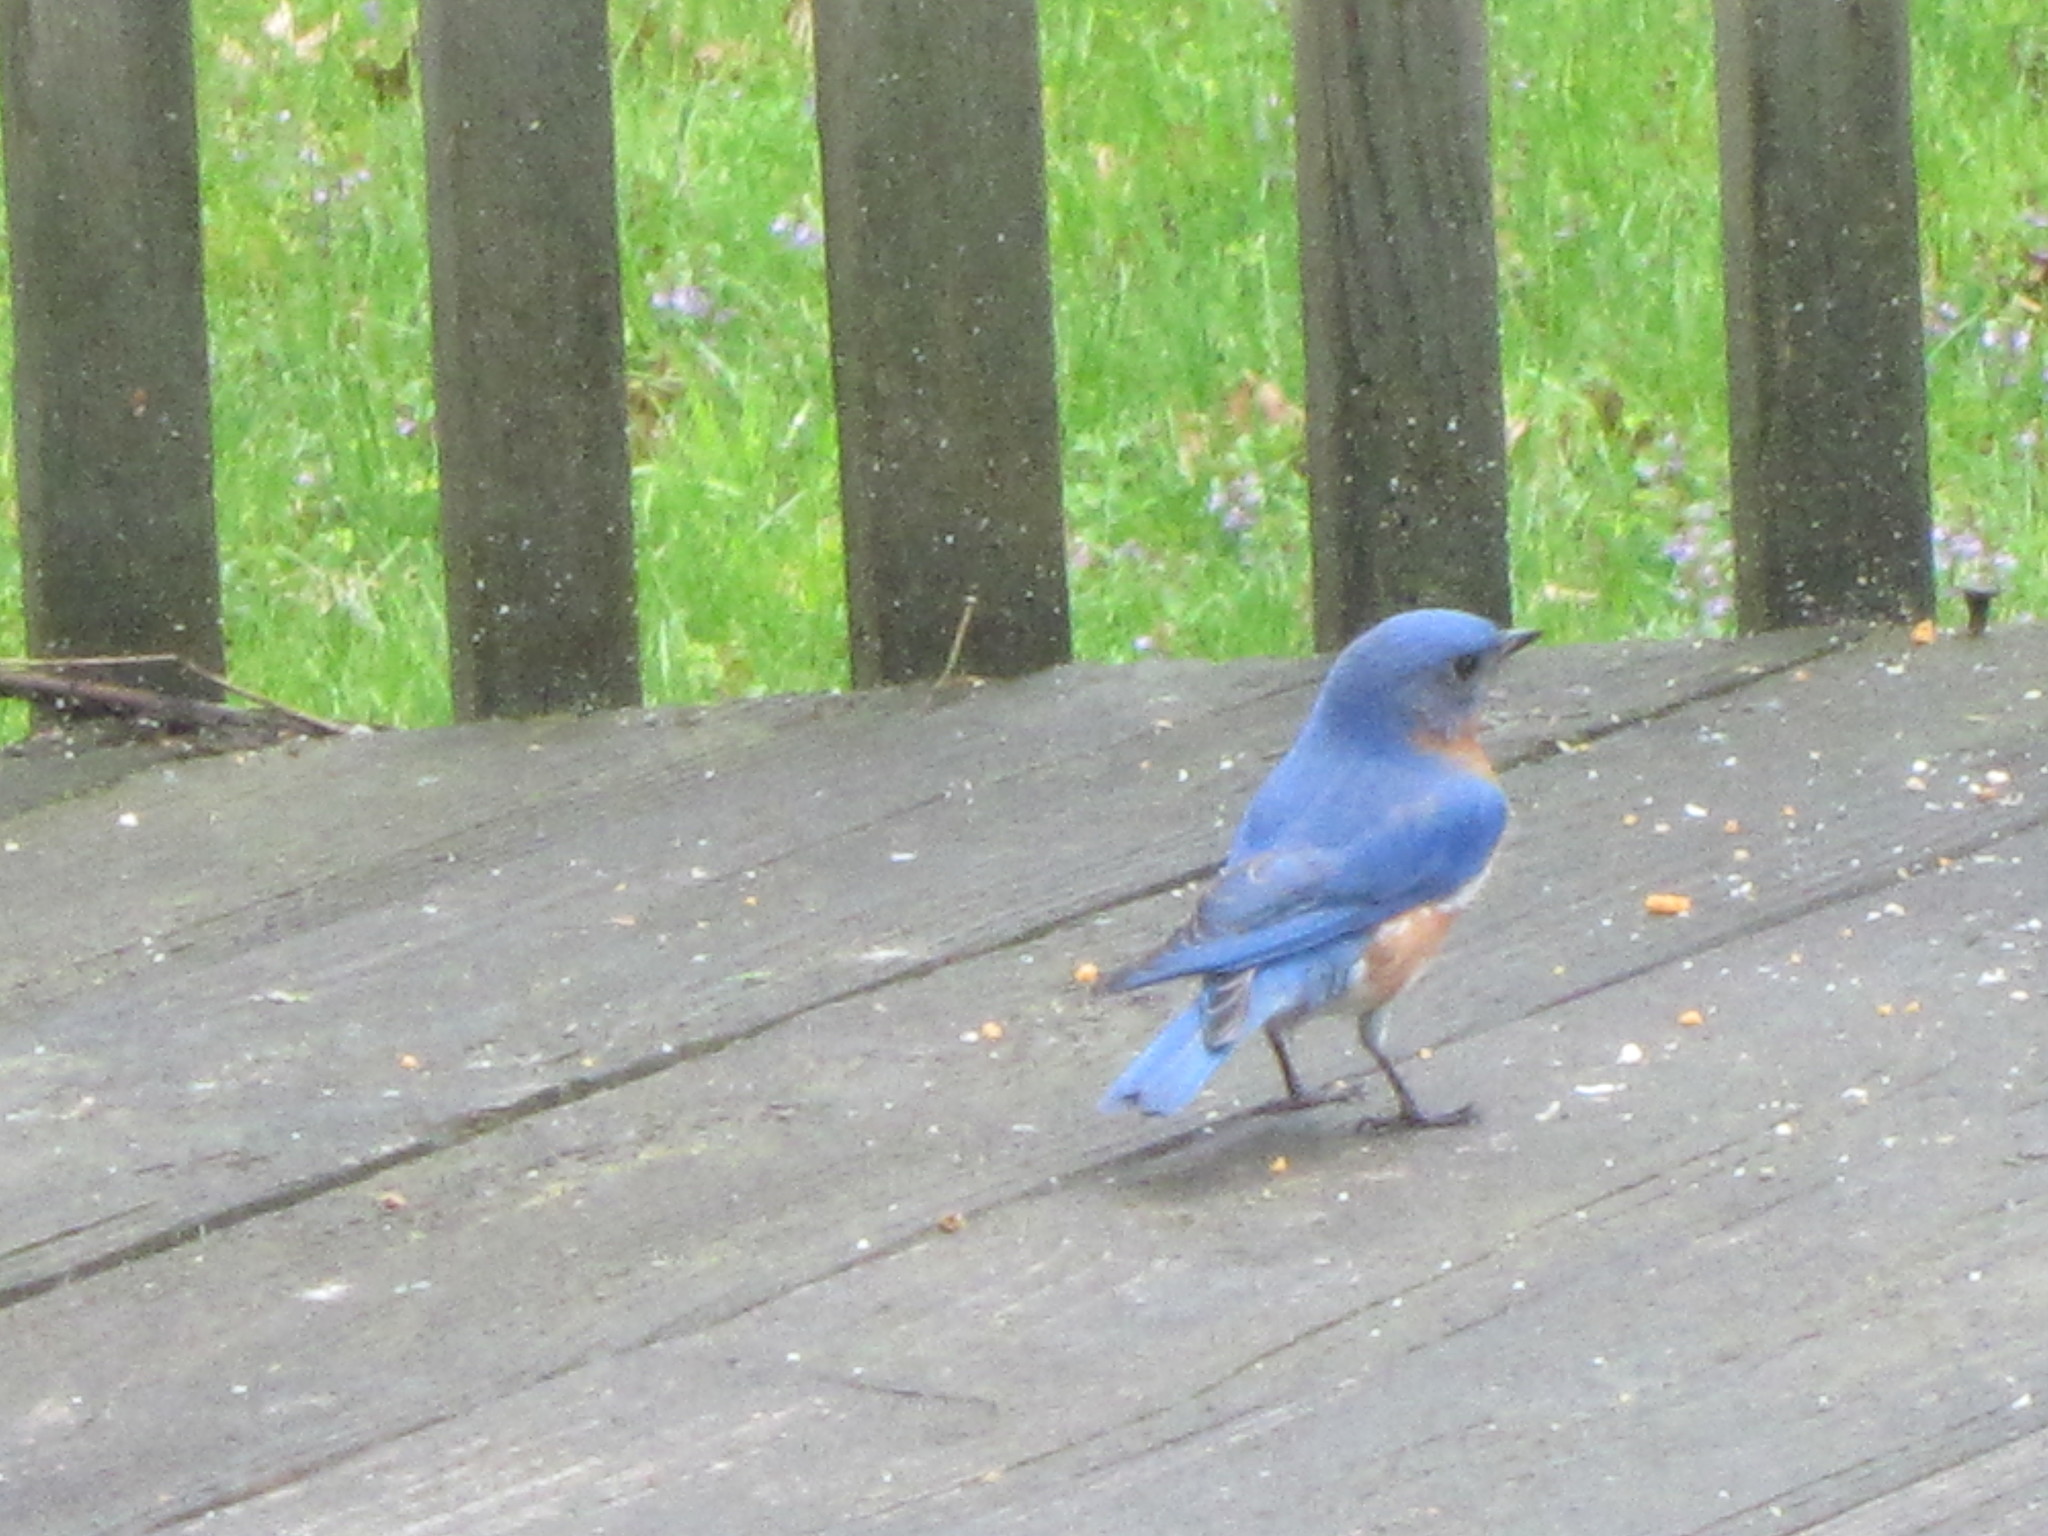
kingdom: Animalia
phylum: Chordata
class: Aves
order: Passeriformes
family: Turdidae
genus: Sialia
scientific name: Sialia sialis
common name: Eastern bluebird
